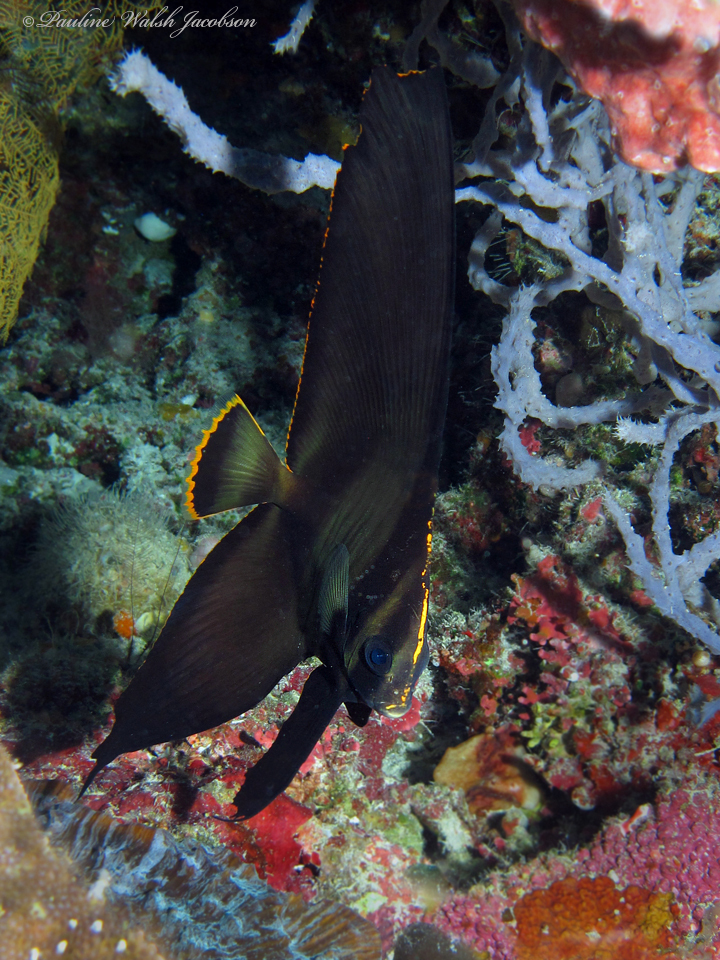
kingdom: Animalia
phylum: Chordata
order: Perciformes
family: Ephippidae
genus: Platax
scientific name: Platax pinnatus
